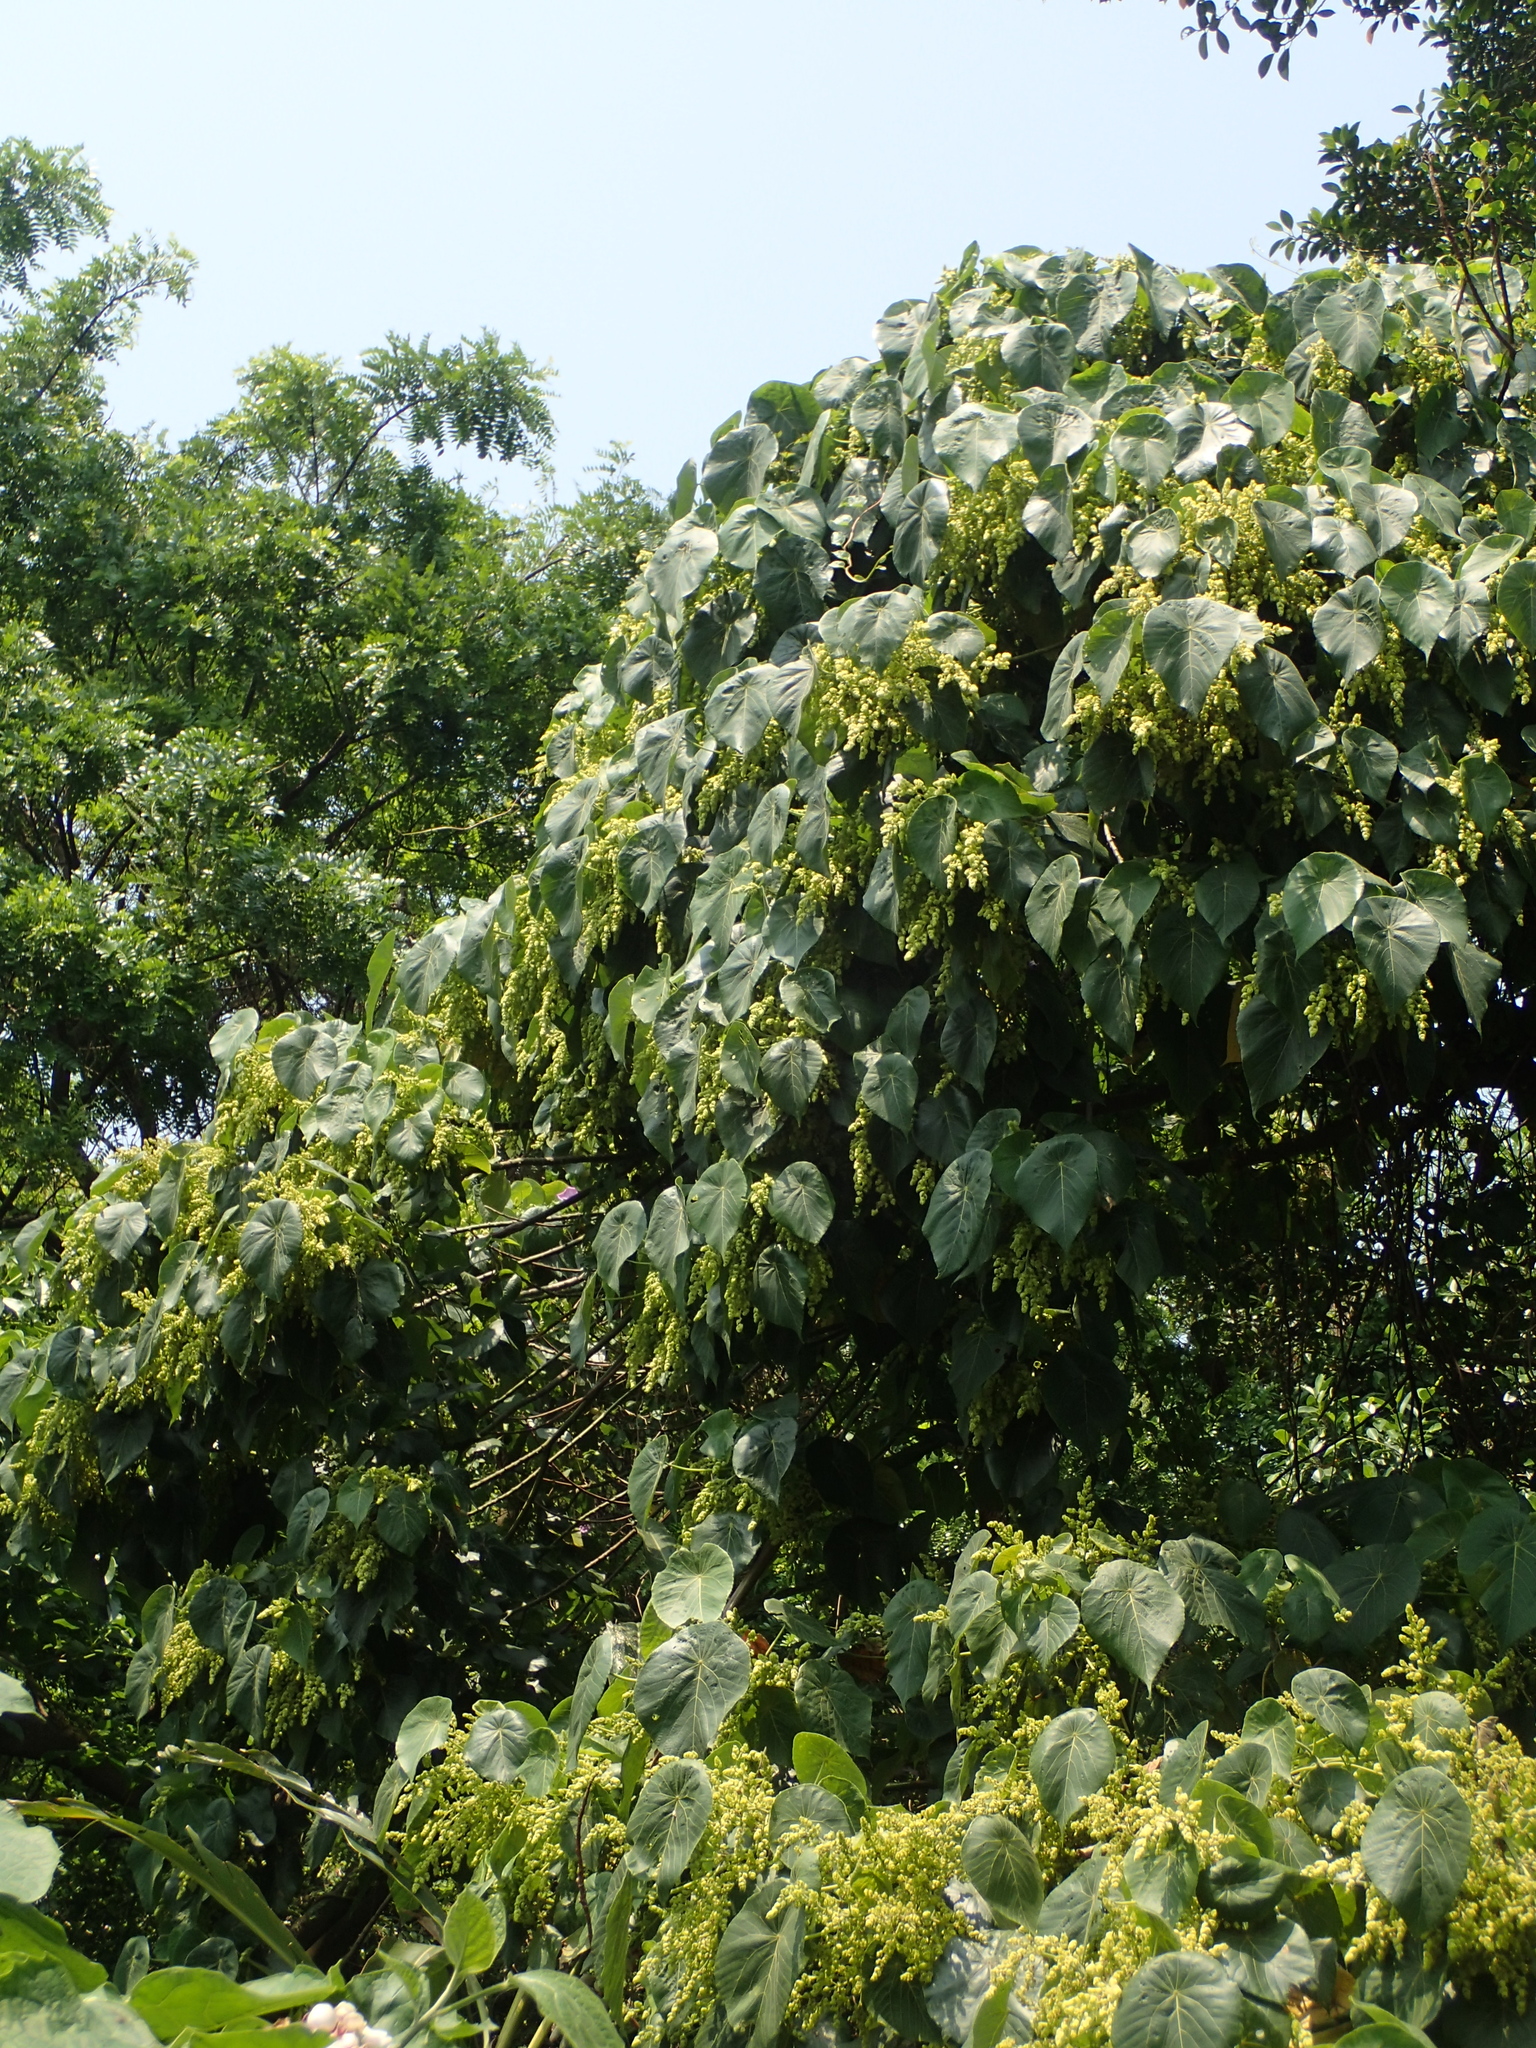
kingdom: Plantae
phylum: Tracheophyta
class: Magnoliopsida
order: Malpighiales
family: Euphorbiaceae
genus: Macaranga
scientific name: Macaranga tanarius
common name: Parasol leaf tree
